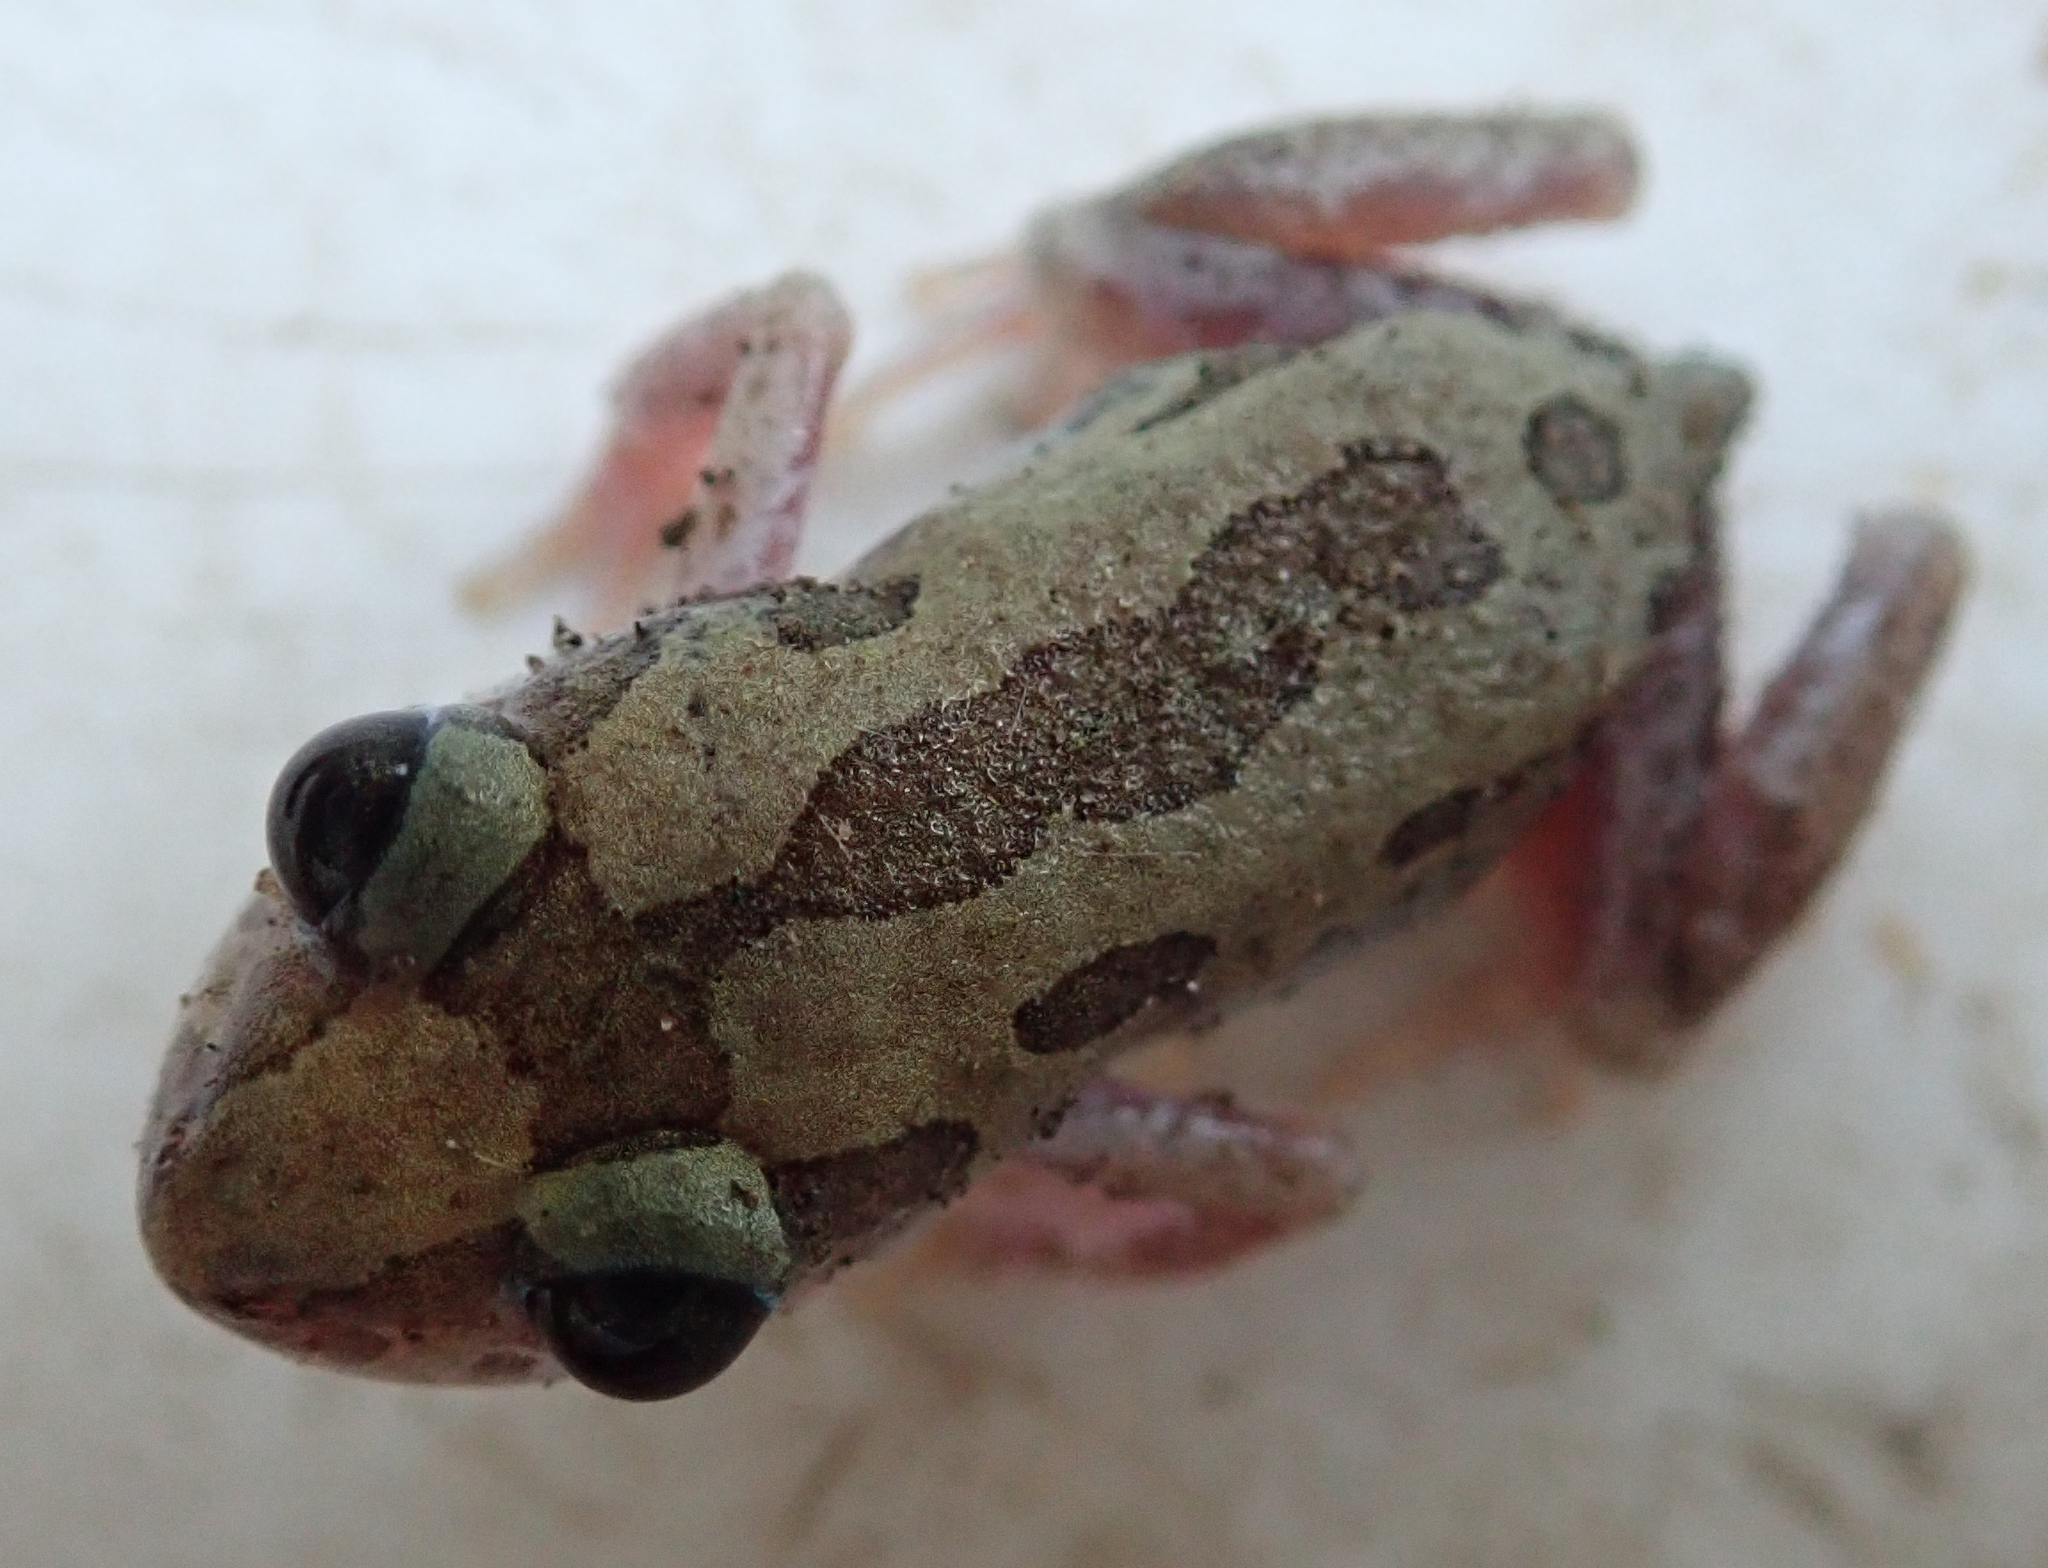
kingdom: Animalia
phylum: Chordata
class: Amphibia
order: Anura
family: Hyperoliidae
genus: Kassina
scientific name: Kassina senegalensis
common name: Senegal land frog
